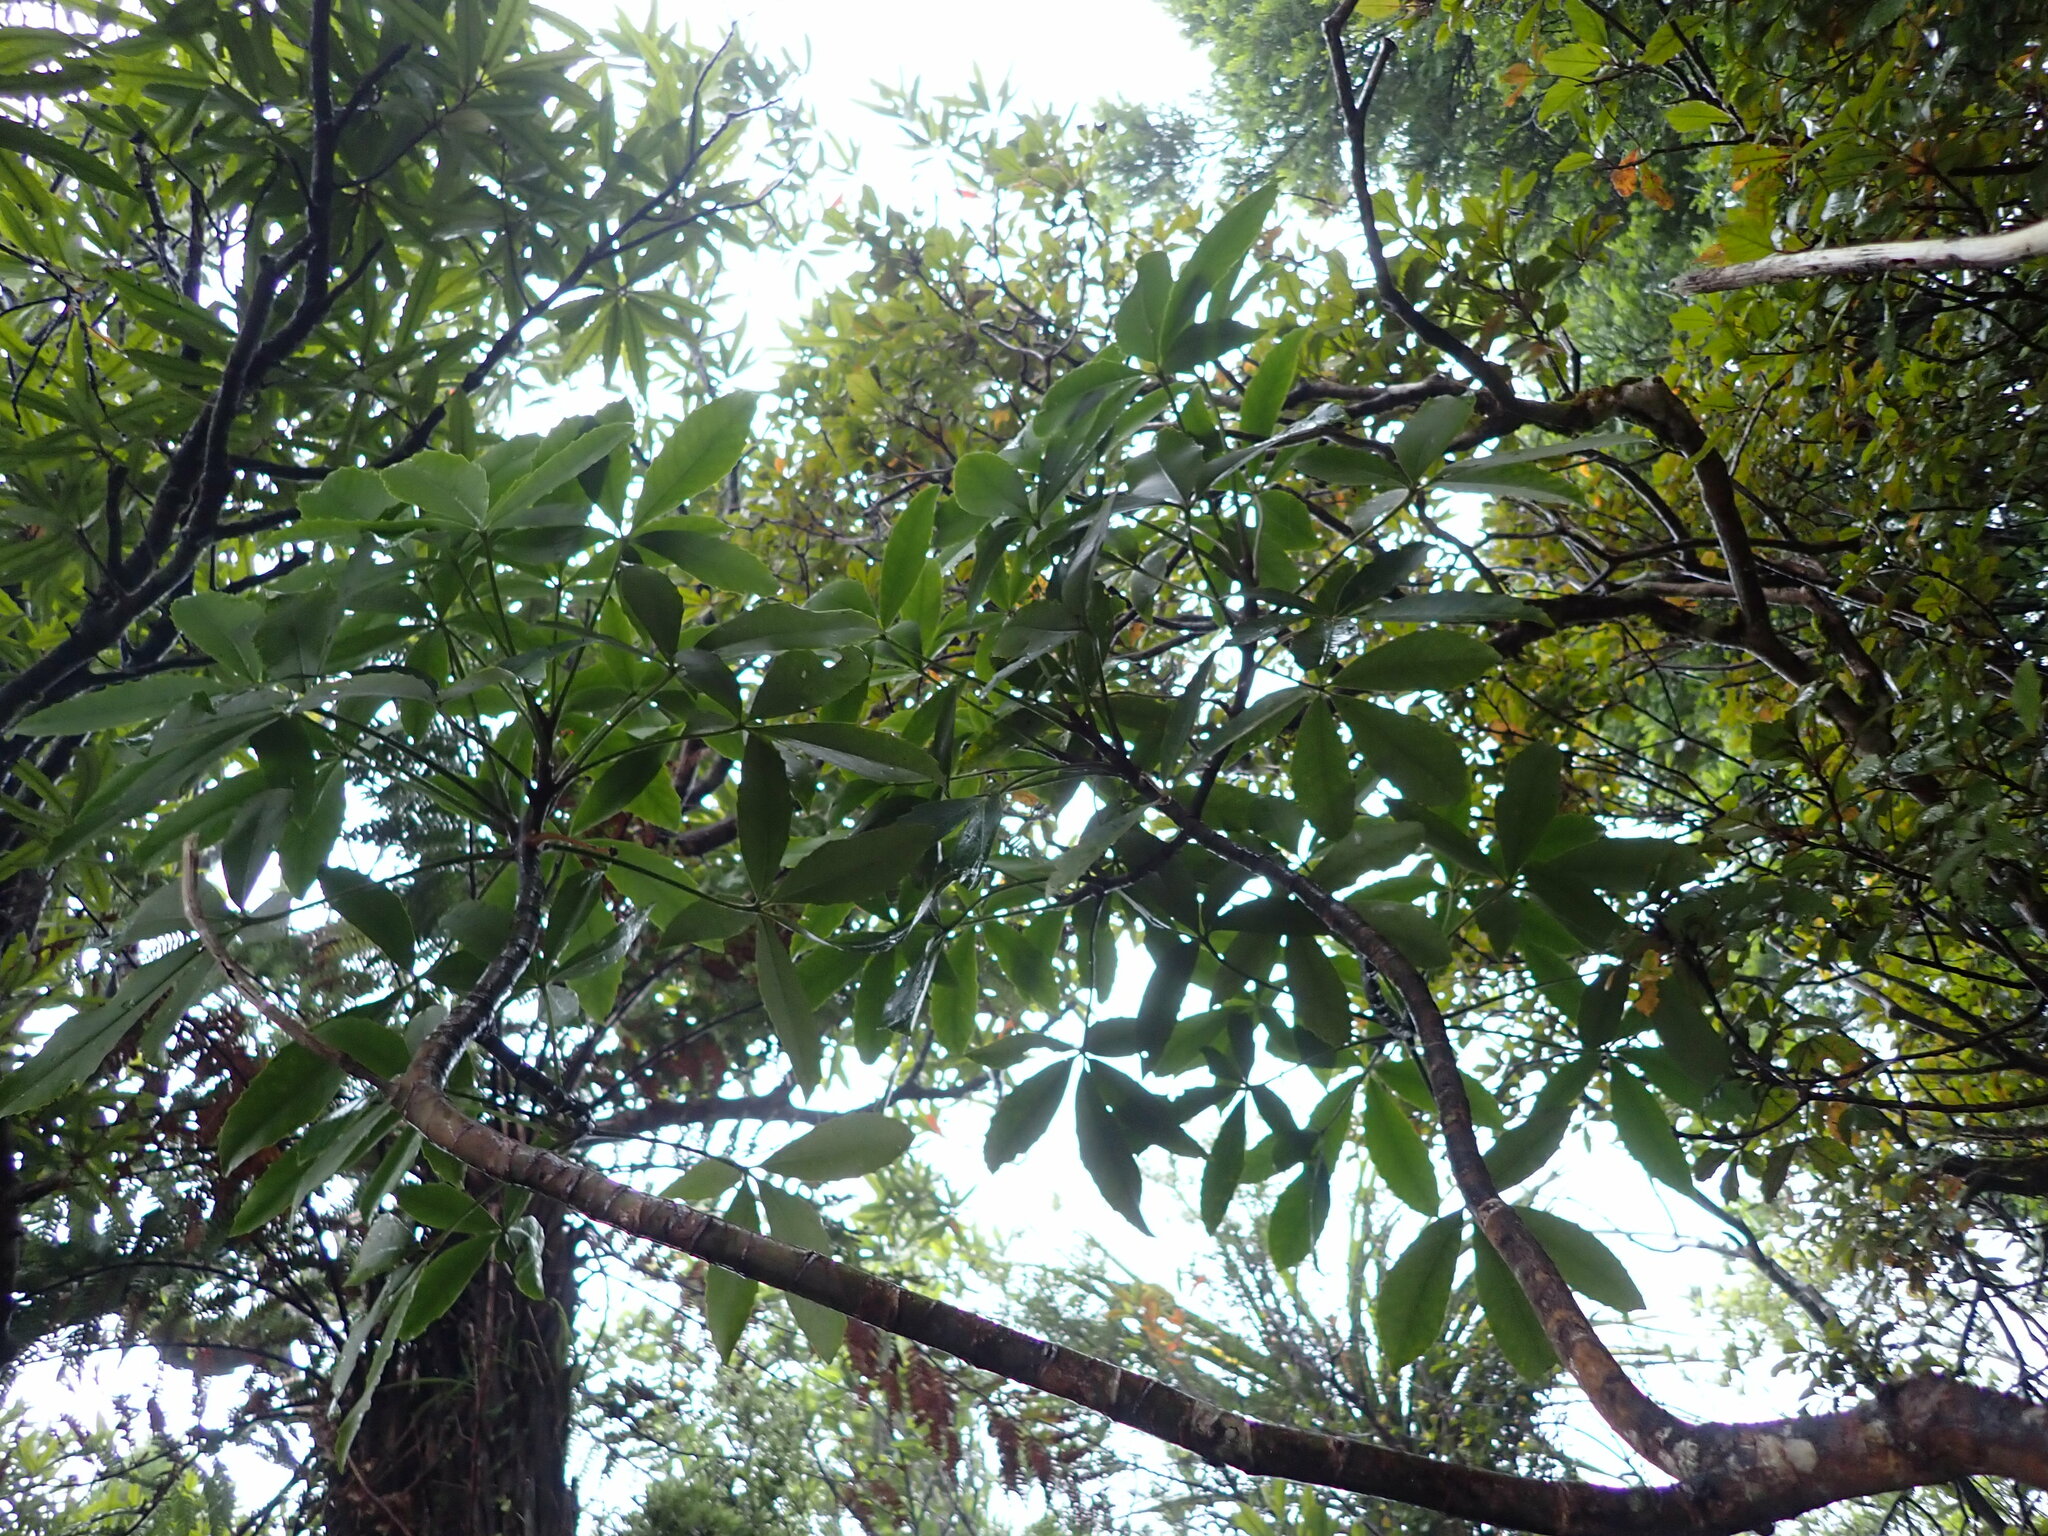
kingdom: Plantae
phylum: Tracheophyta
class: Magnoliopsida
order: Apiales
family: Araliaceae
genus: Neopanax
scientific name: Neopanax colensoi
